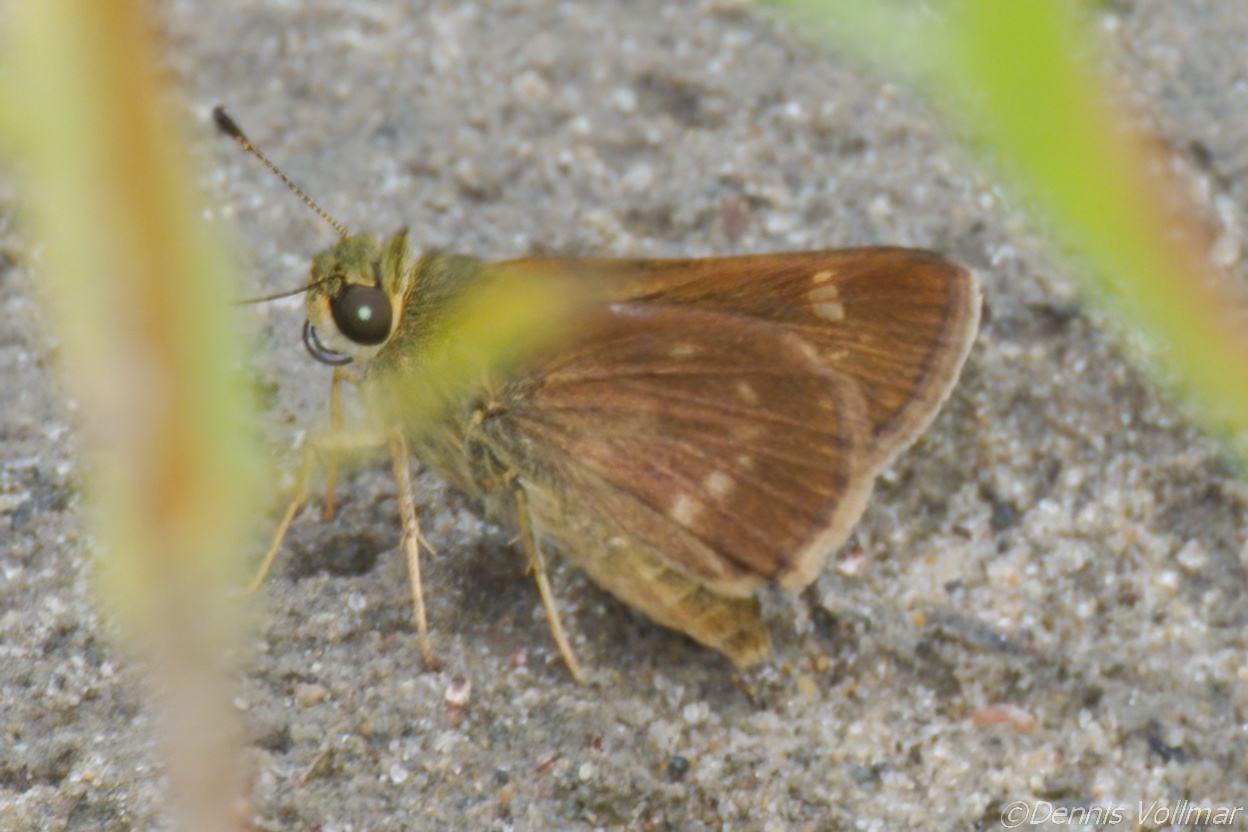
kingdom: Animalia
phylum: Arthropoda
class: Insecta
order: Lepidoptera
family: Hesperiidae
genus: Vernia
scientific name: Vernia verna
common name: Little glassywing
